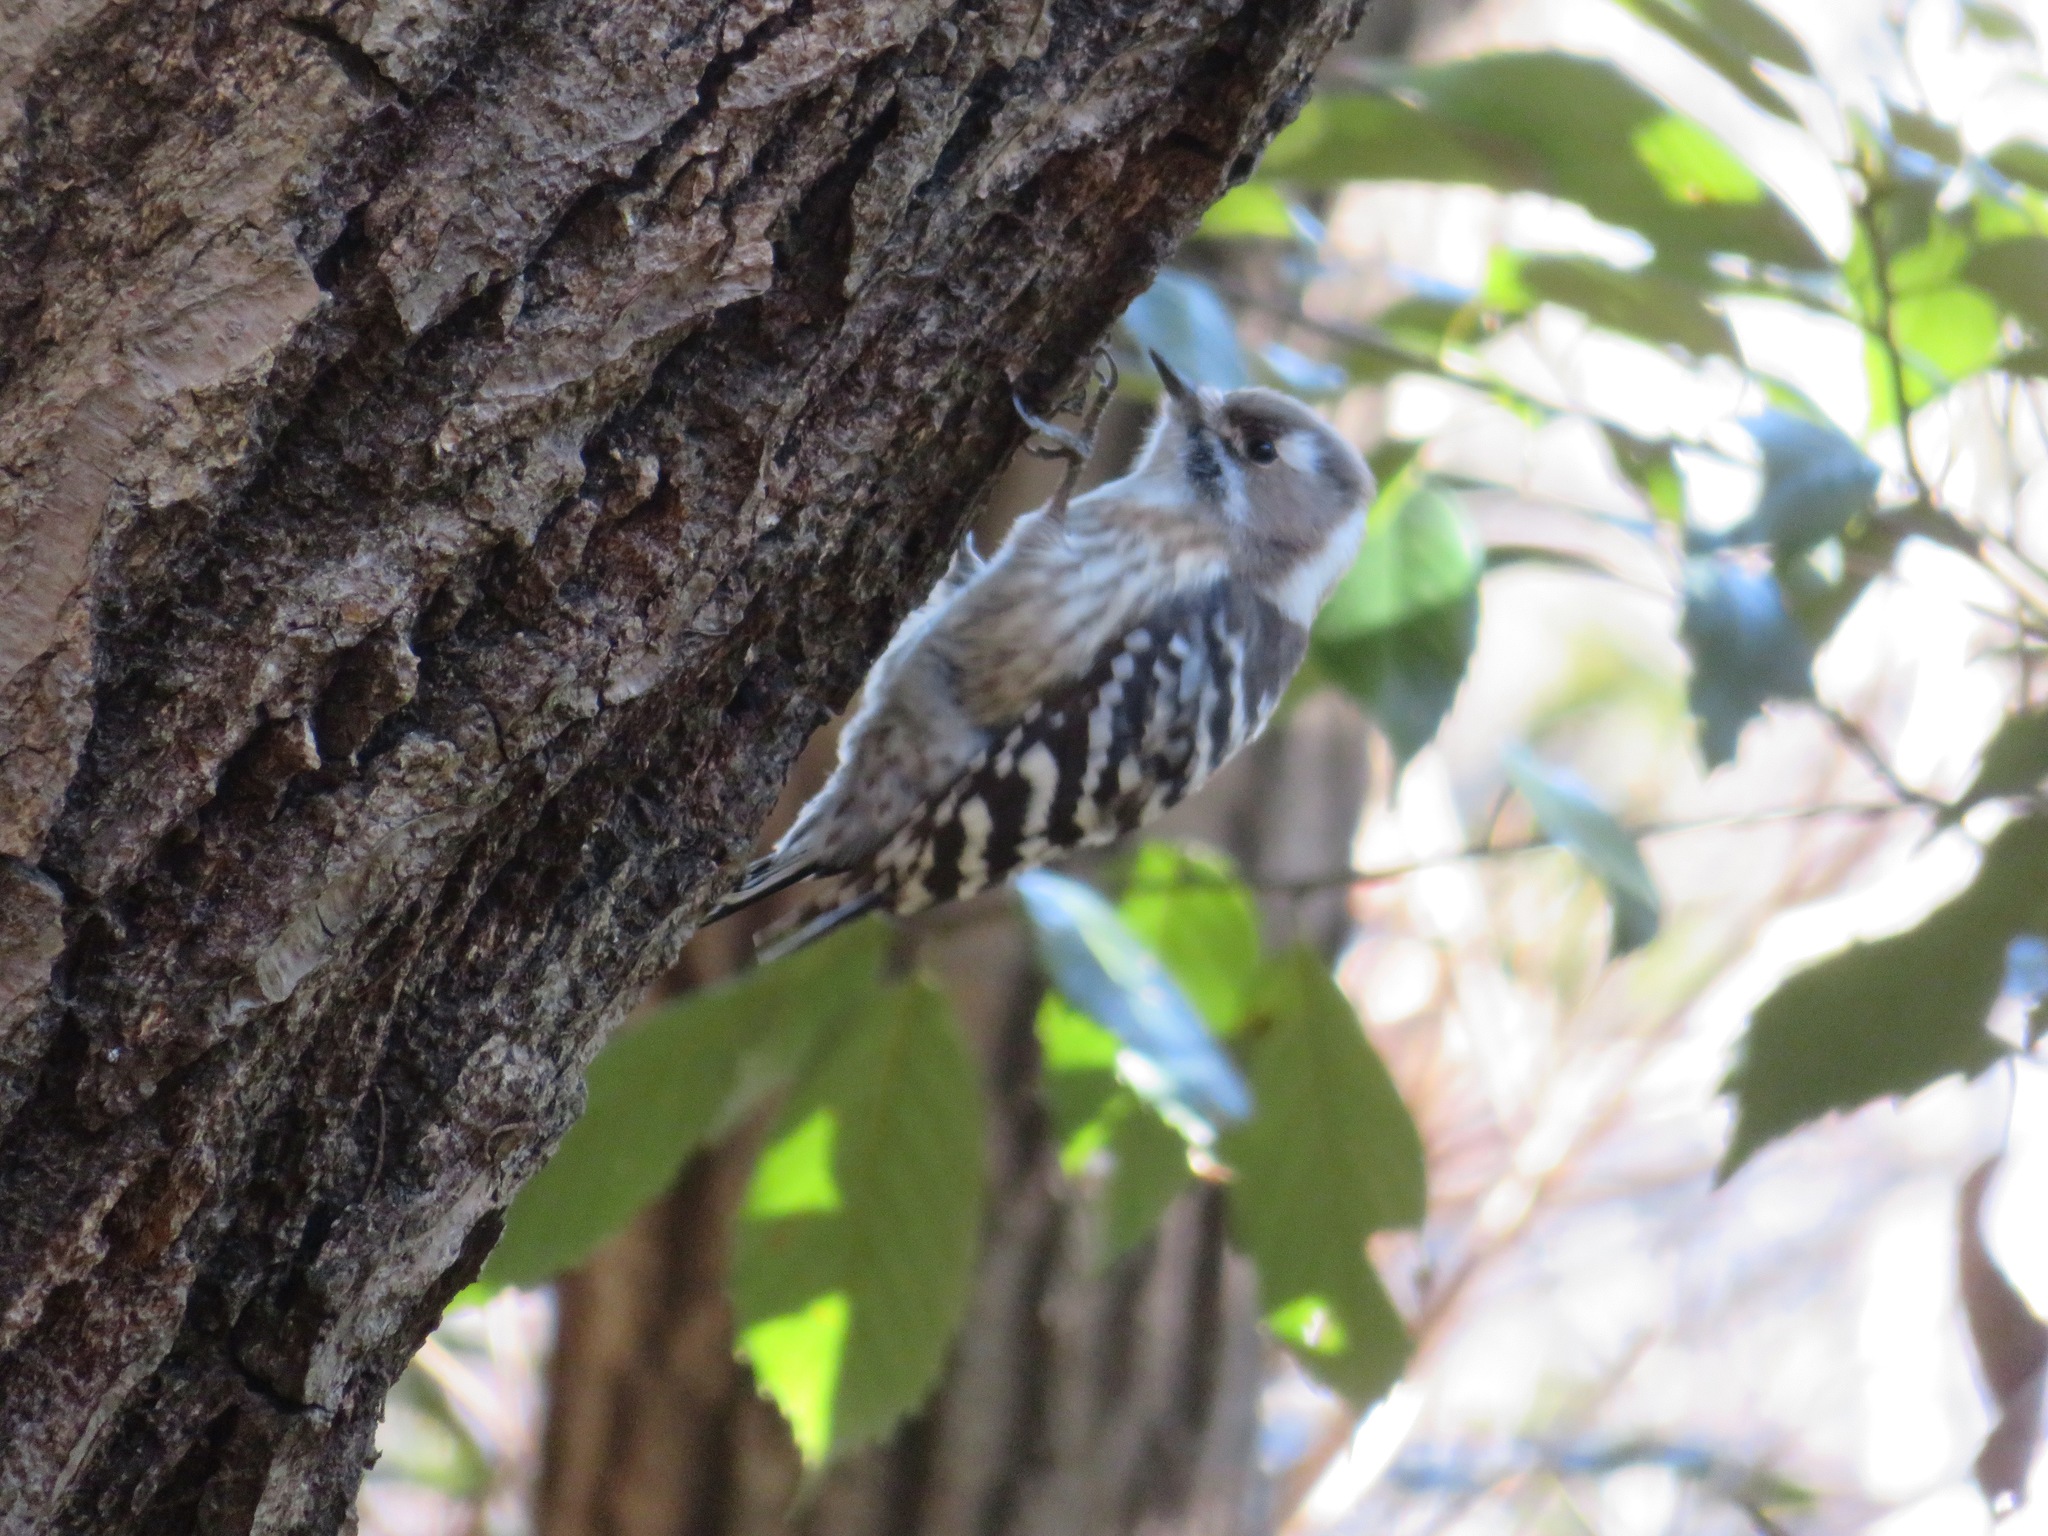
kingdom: Animalia
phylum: Chordata
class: Aves
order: Piciformes
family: Picidae
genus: Yungipicus
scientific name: Yungipicus kizuki
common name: Japanese pygmy woodpecker
